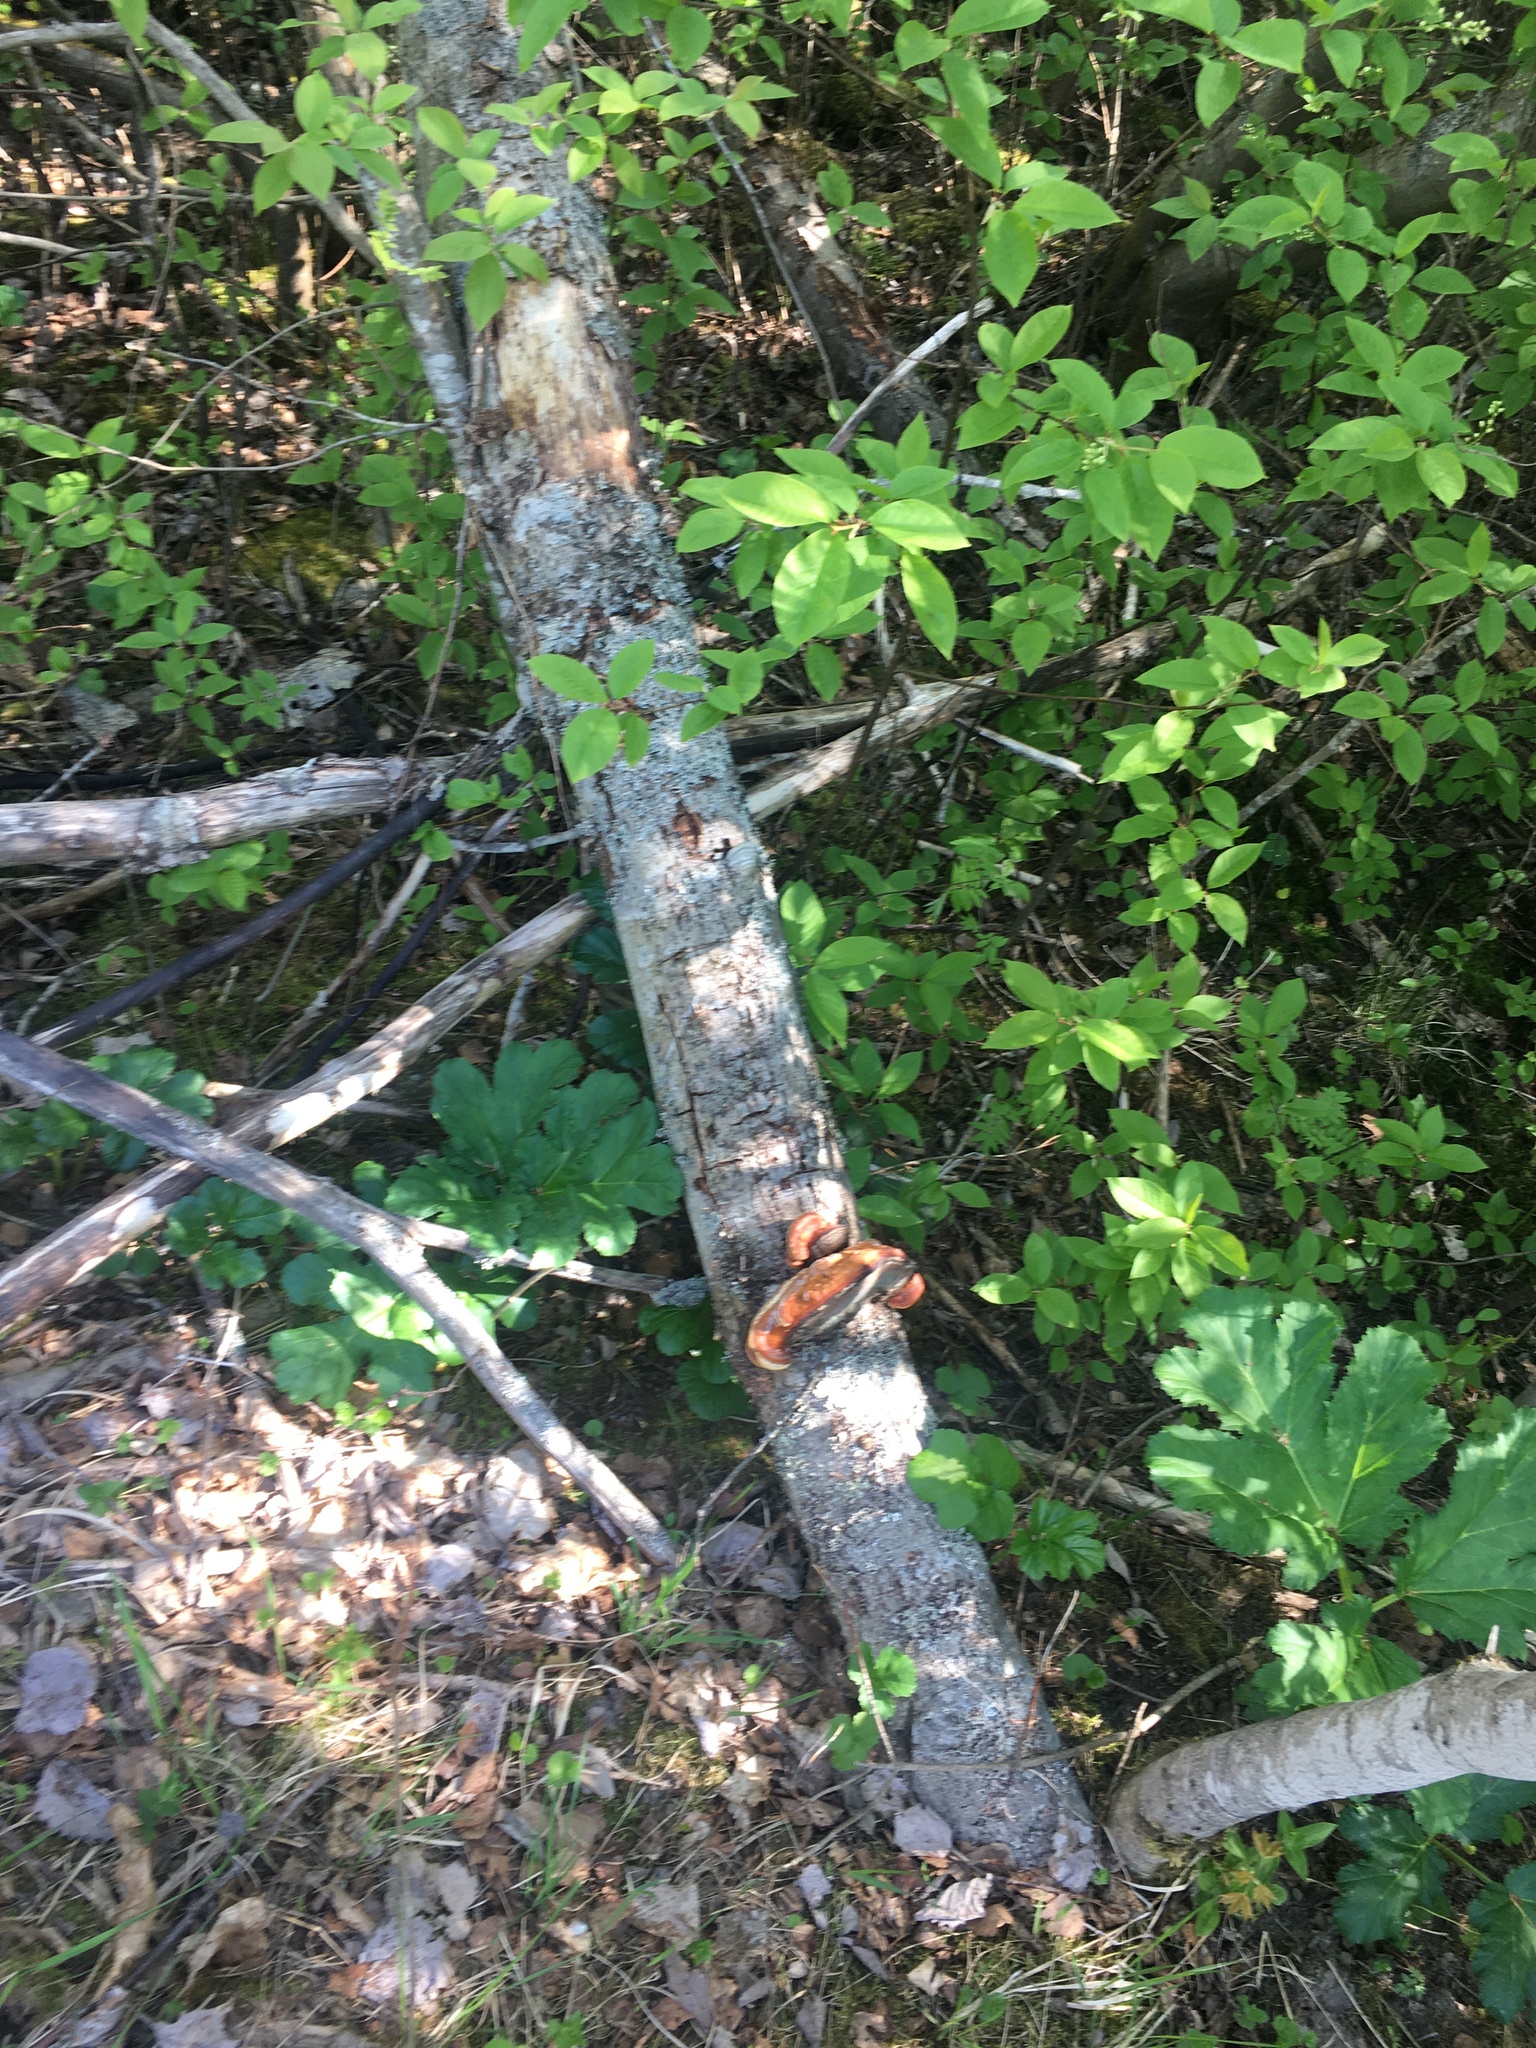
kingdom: Fungi
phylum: Basidiomycota
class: Agaricomycetes
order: Polyporales
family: Polyporaceae
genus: Fomes
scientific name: Fomes fomentarius
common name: Hoof fungus
